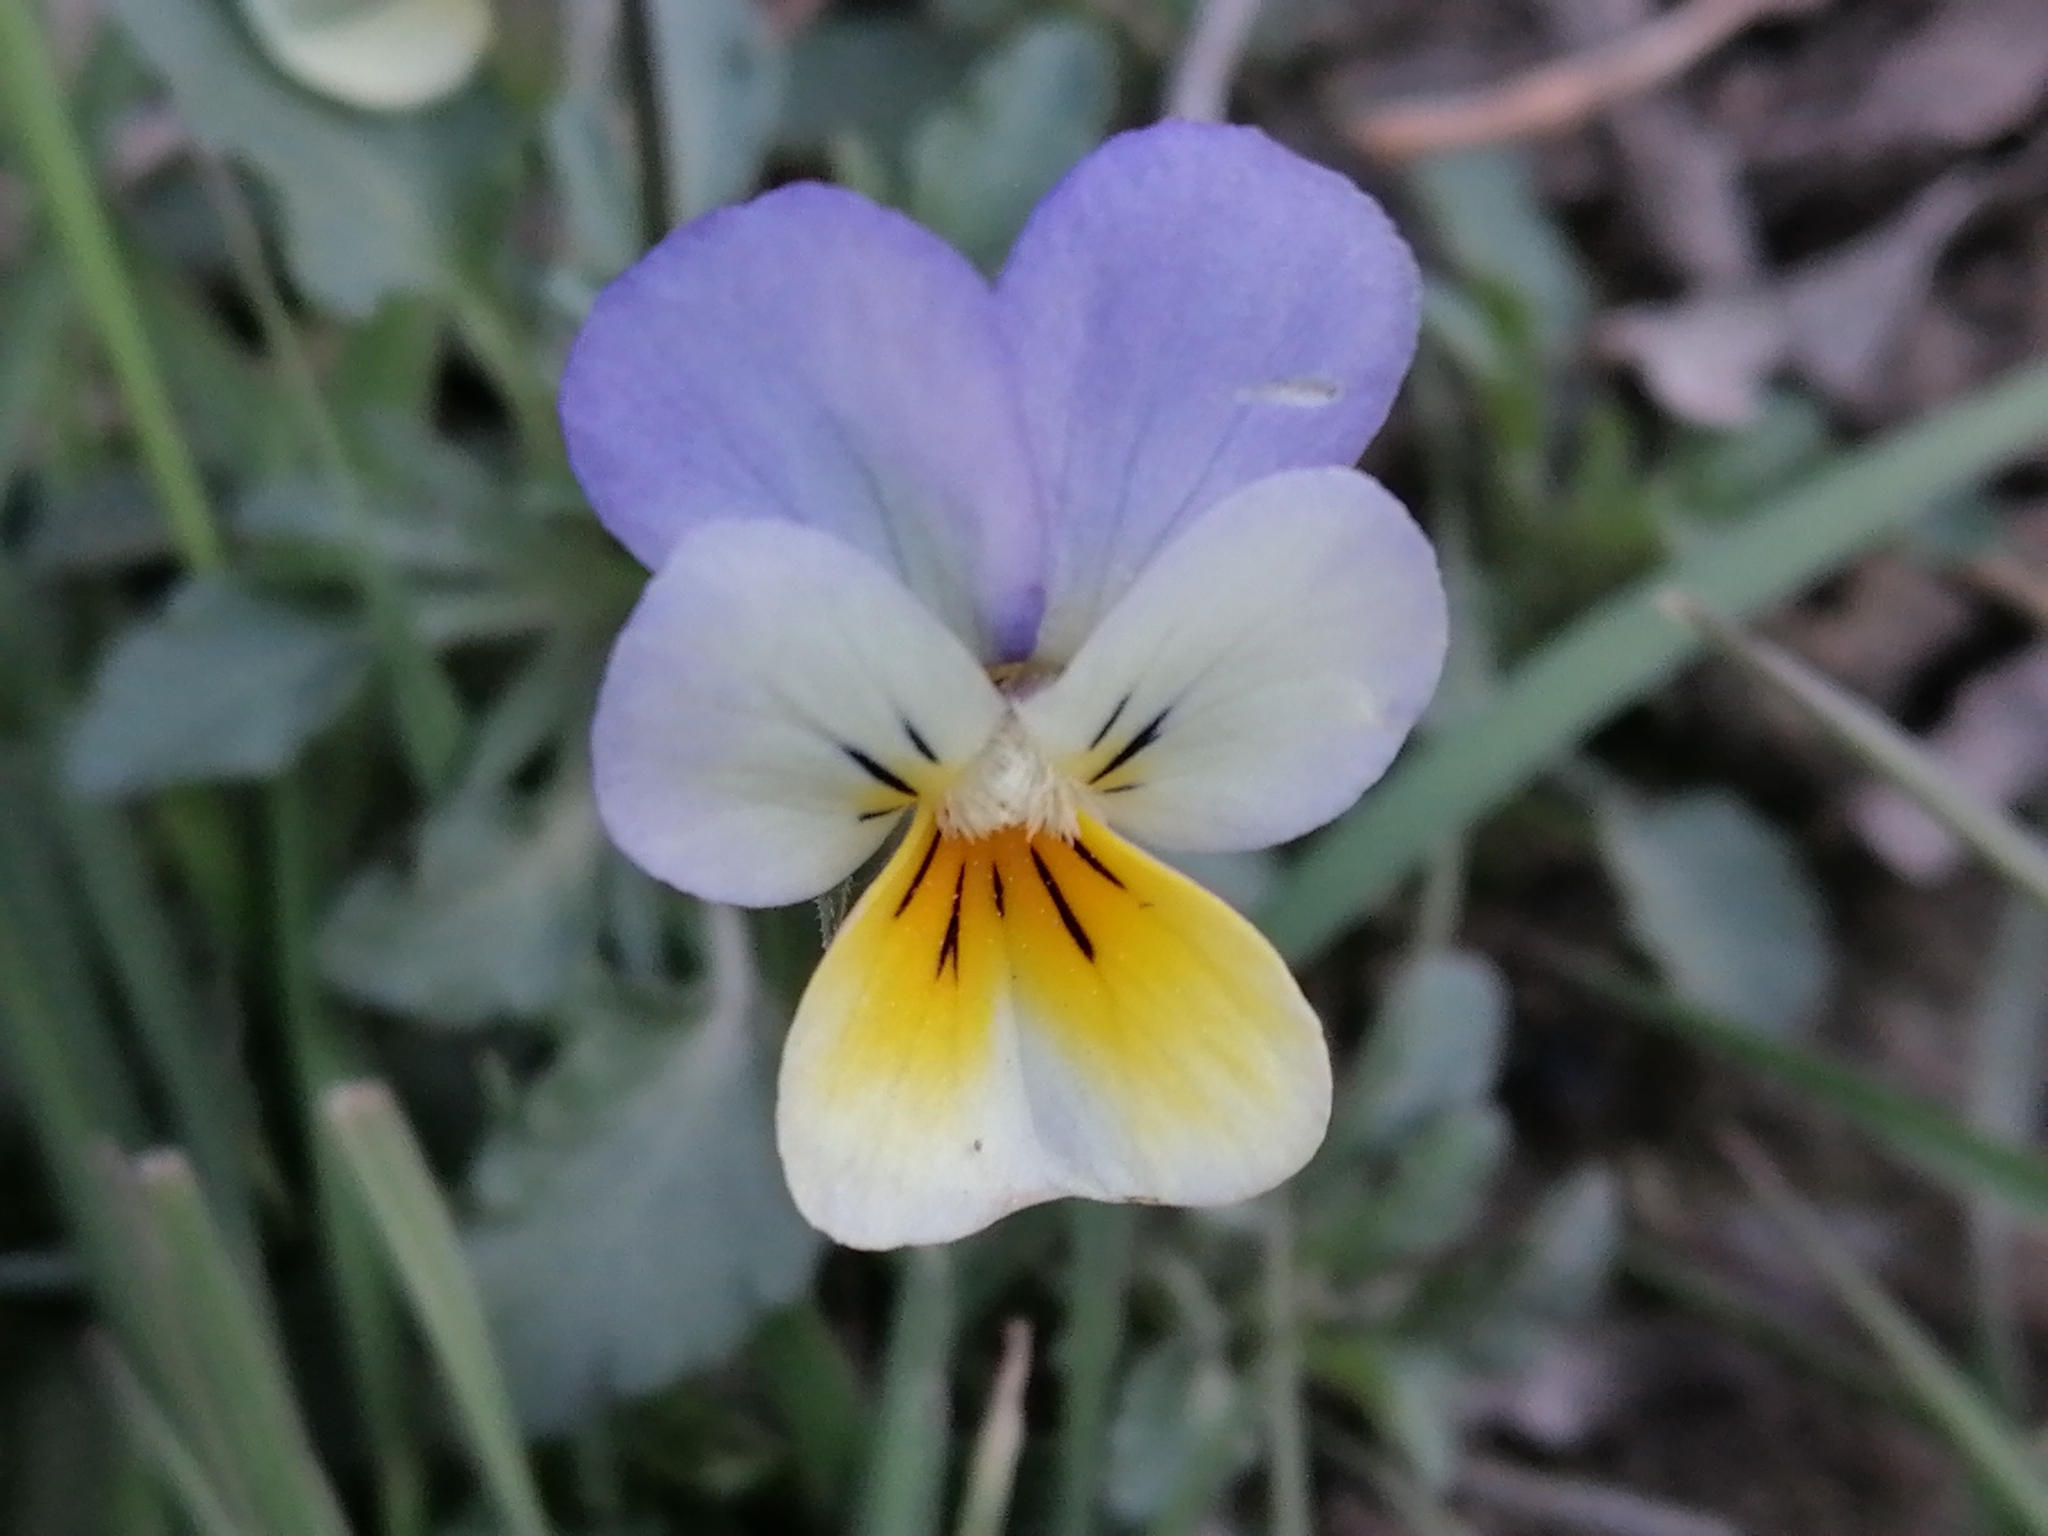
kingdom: Plantae
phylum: Tracheophyta
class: Magnoliopsida
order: Malpighiales
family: Violaceae
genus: Viola
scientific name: Viola tricolor
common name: Pansy
